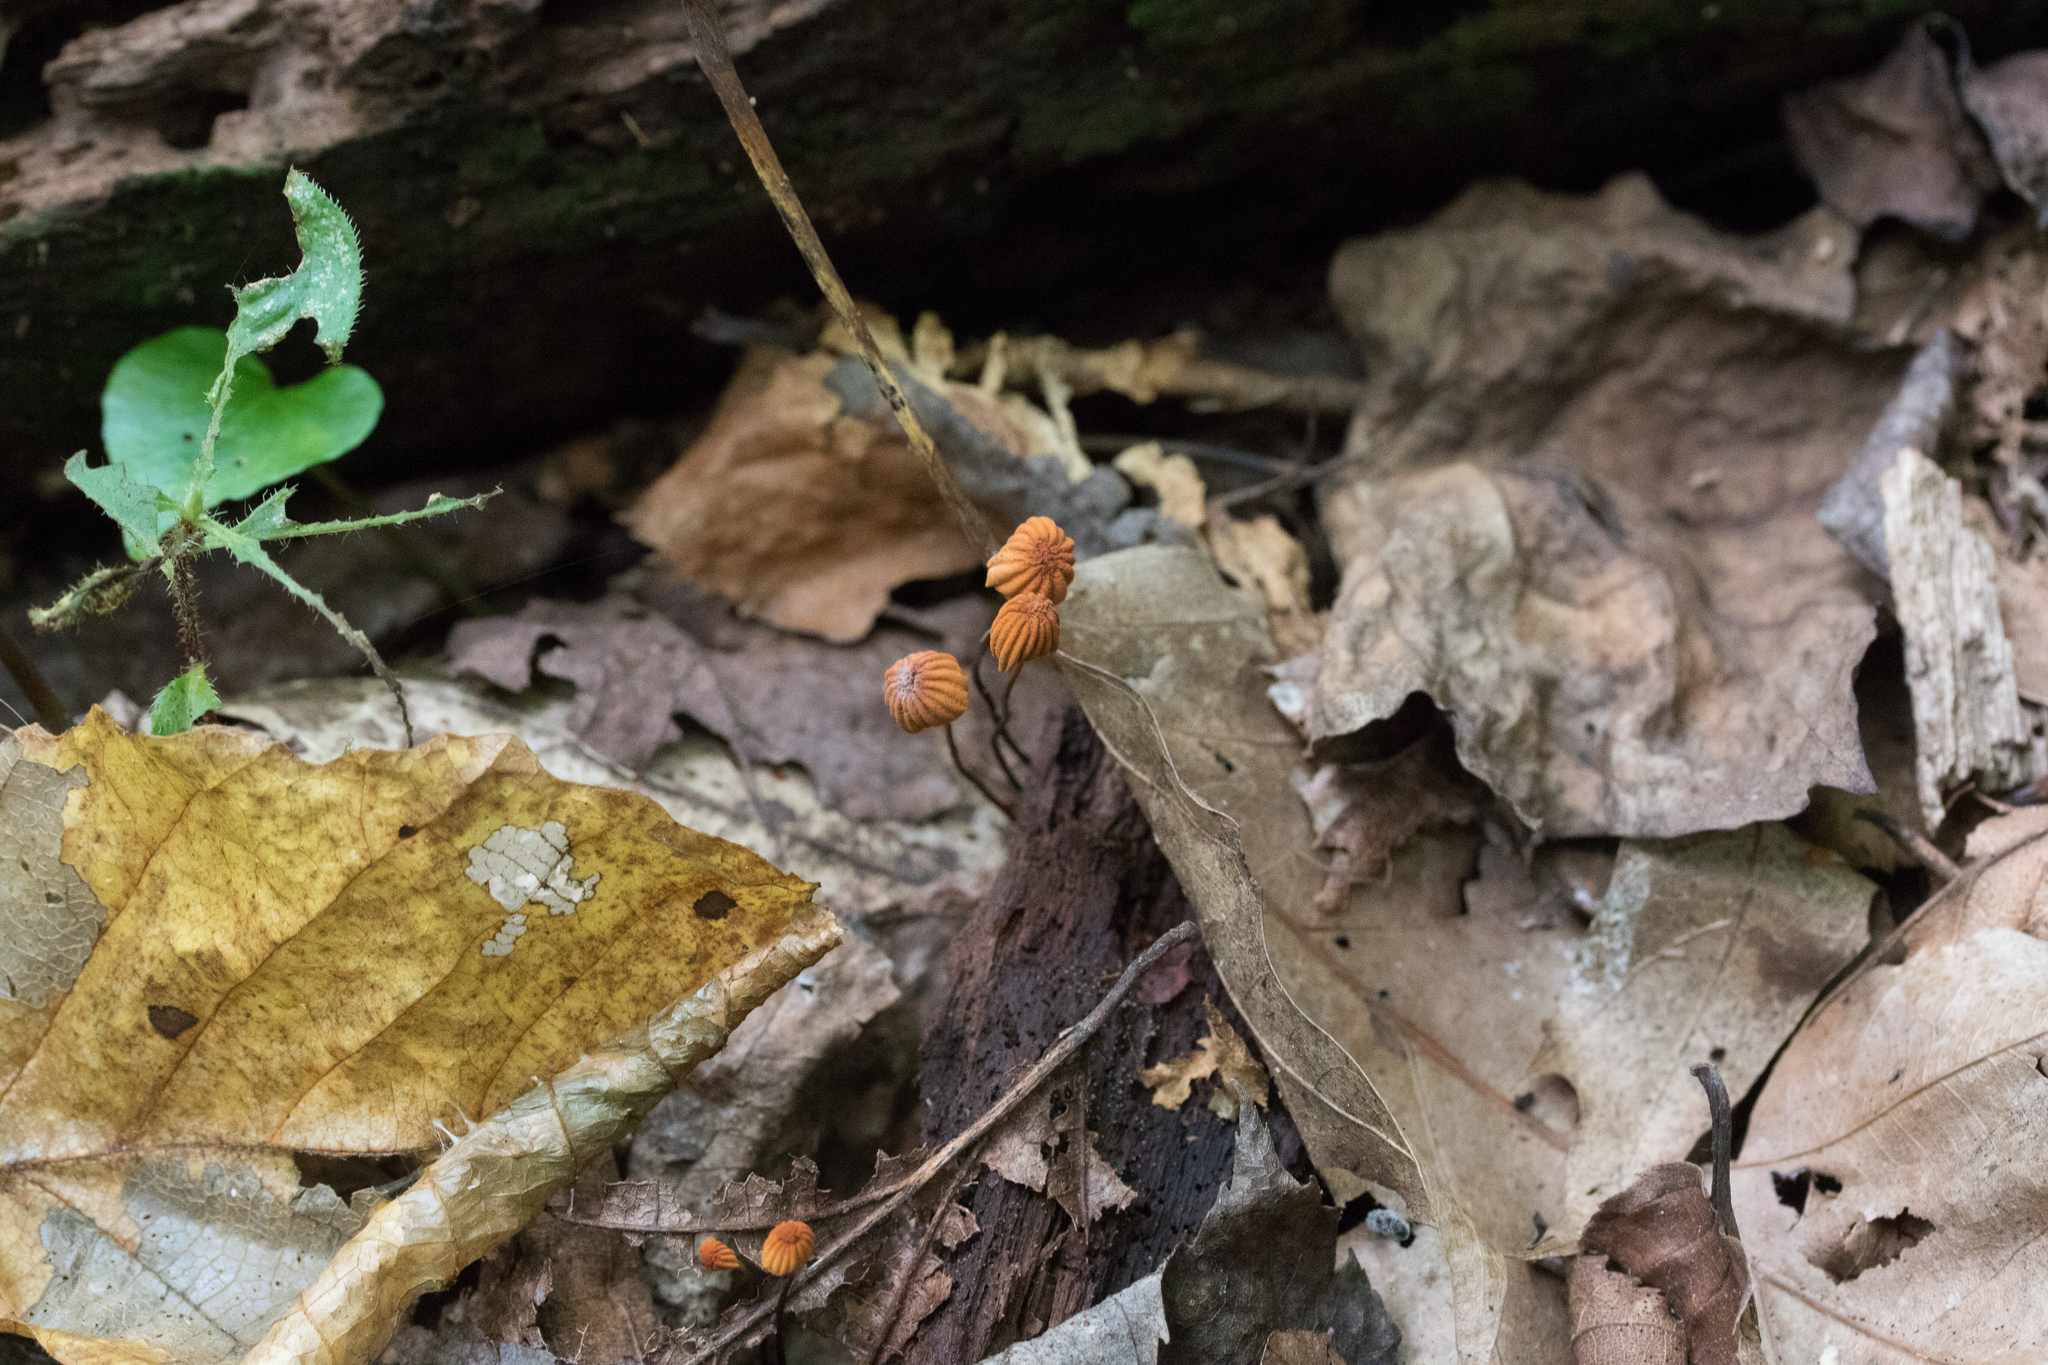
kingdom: Fungi
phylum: Basidiomycota
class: Agaricomycetes
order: Agaricales
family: Marasmiaceae
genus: Marasmius
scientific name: Marasmius siccus
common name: Orange pinwheel
